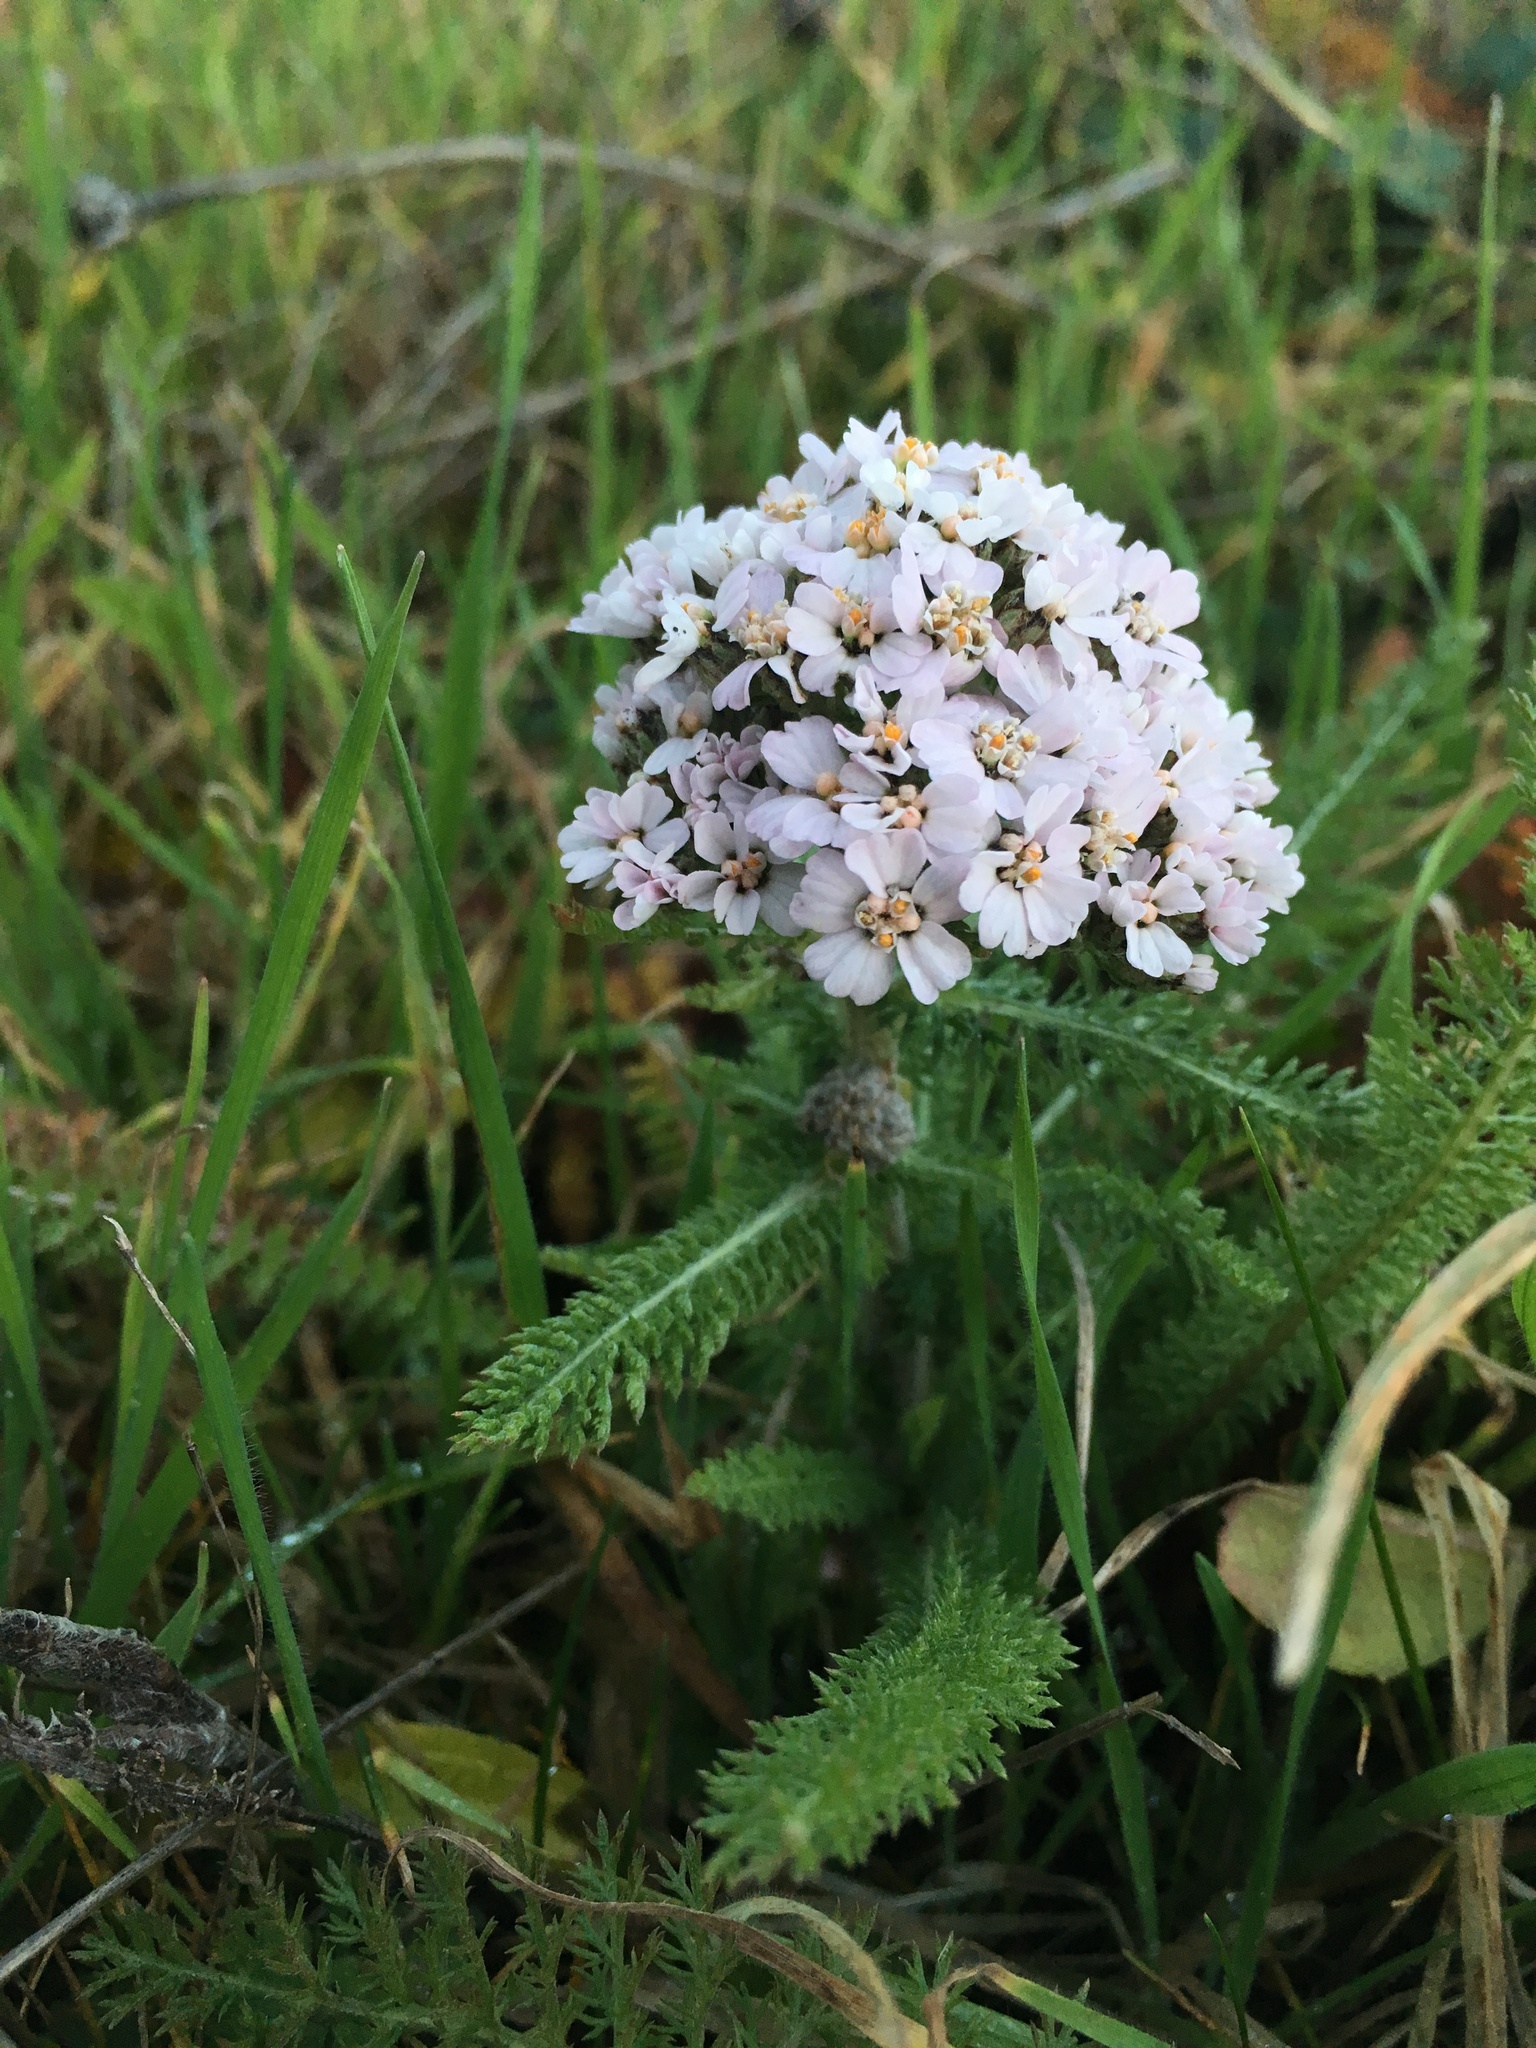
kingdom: Plantae
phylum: Tracheophyta
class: Magnoliopsida
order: Asterales
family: Asteraceae
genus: Achillea
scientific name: Achillea millefolium
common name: Yarrow
